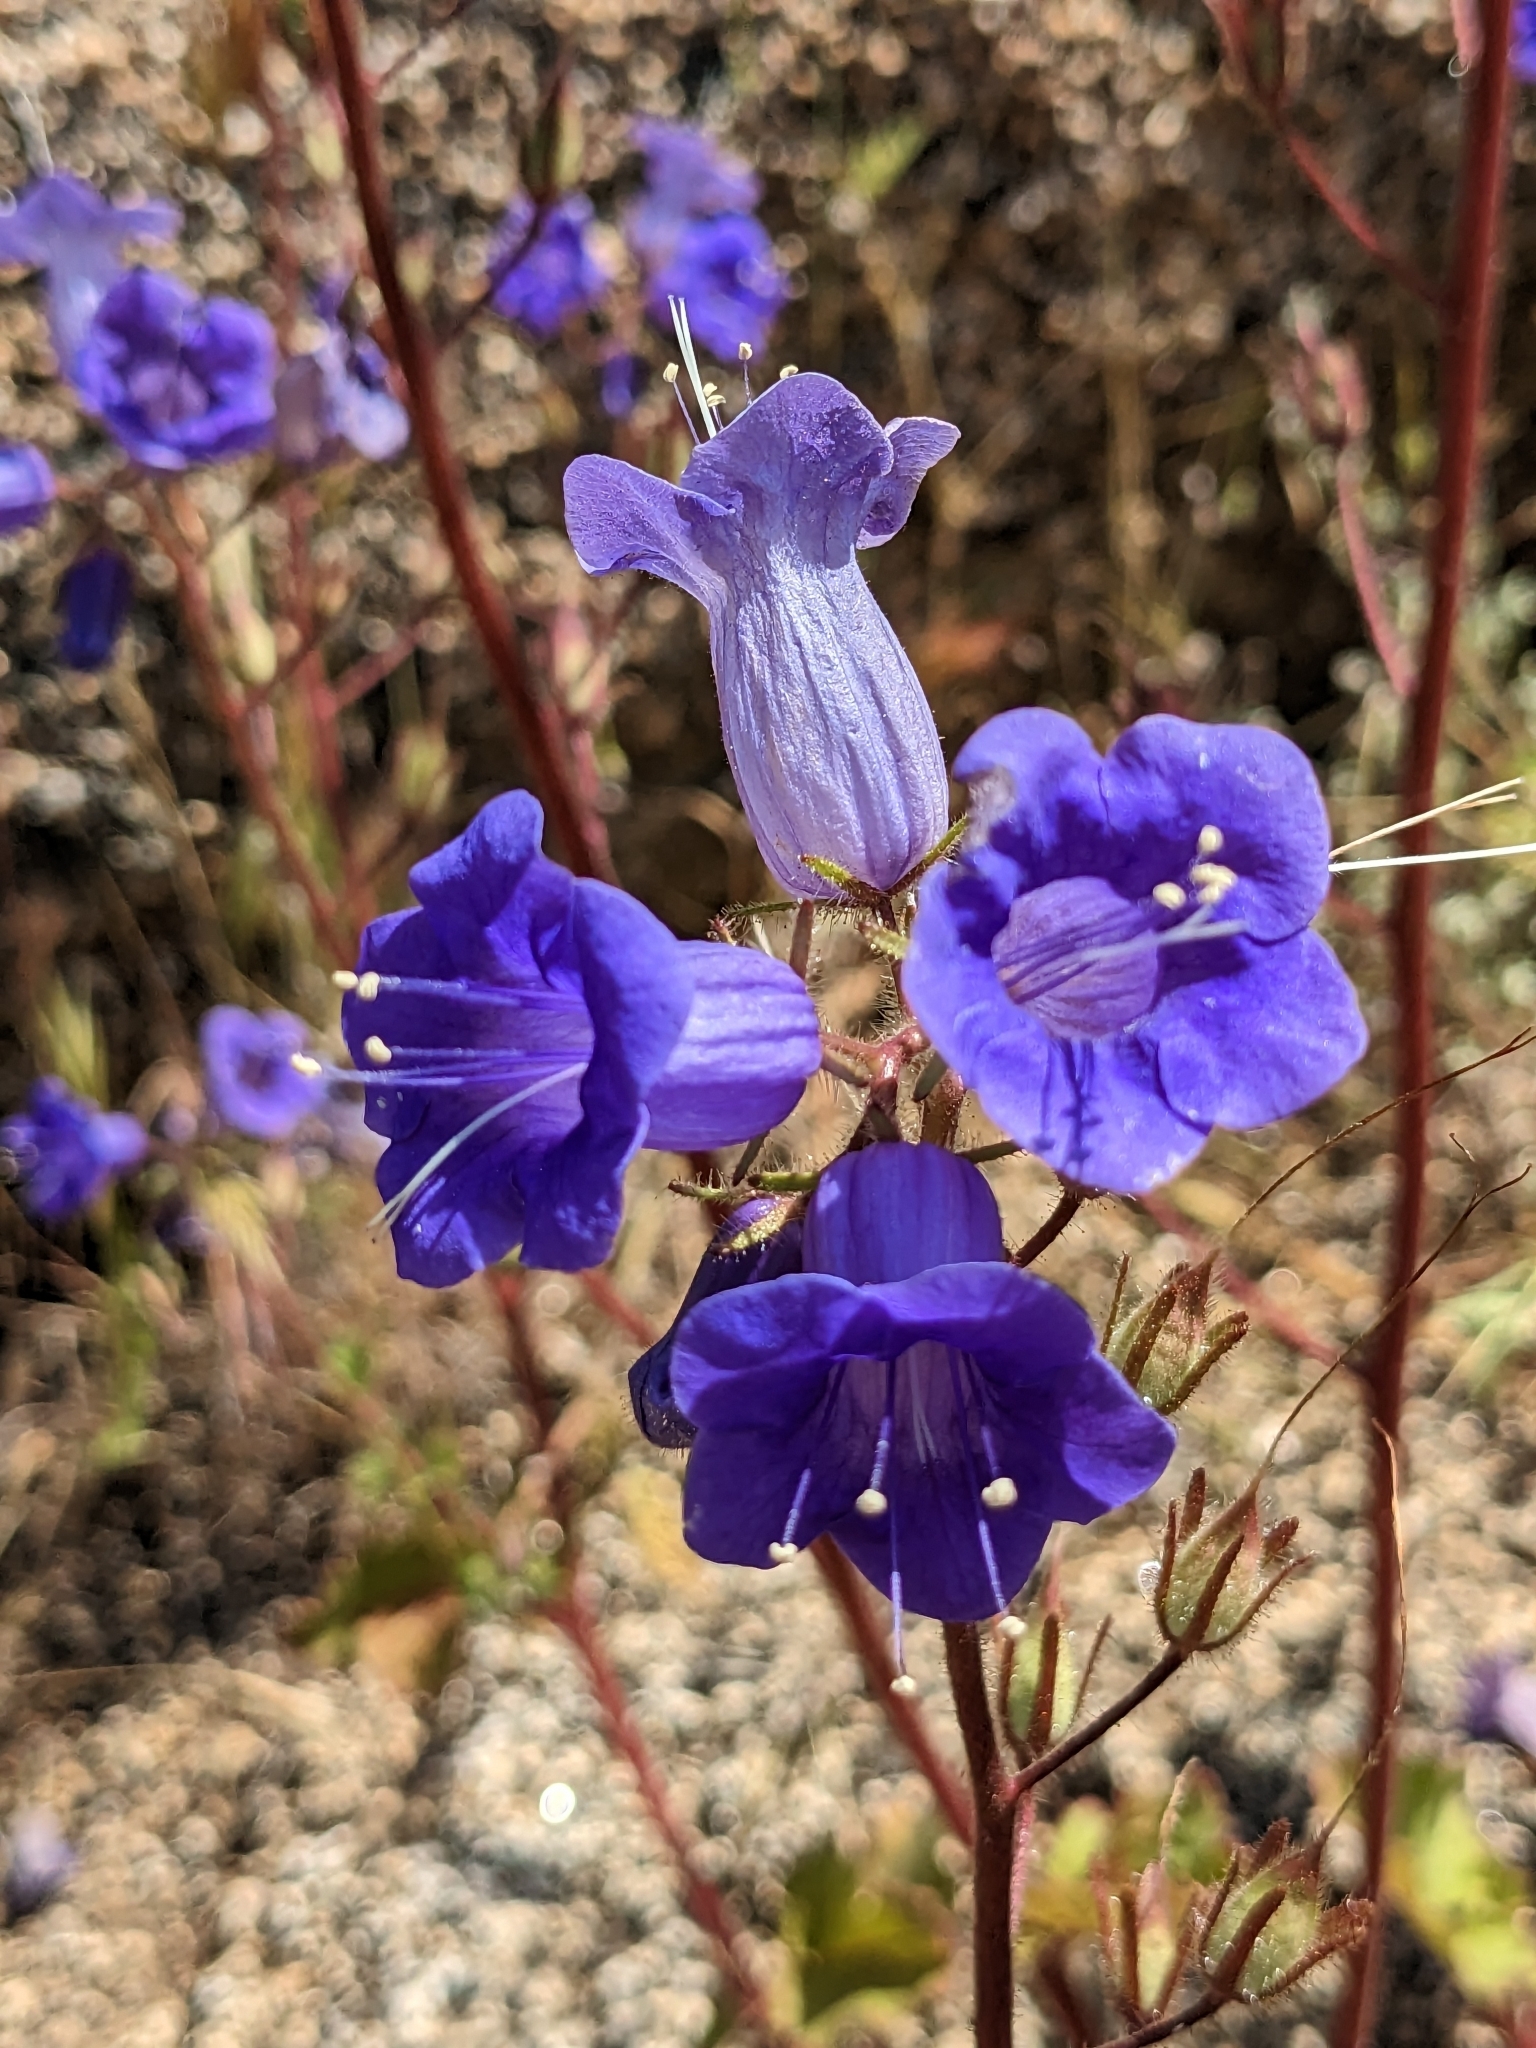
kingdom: Plantae
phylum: Tracheophyta
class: Magnoliopsida
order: Boraginales
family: Hydrophyllaceae
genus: Phacelia
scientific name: Phacelia minor
